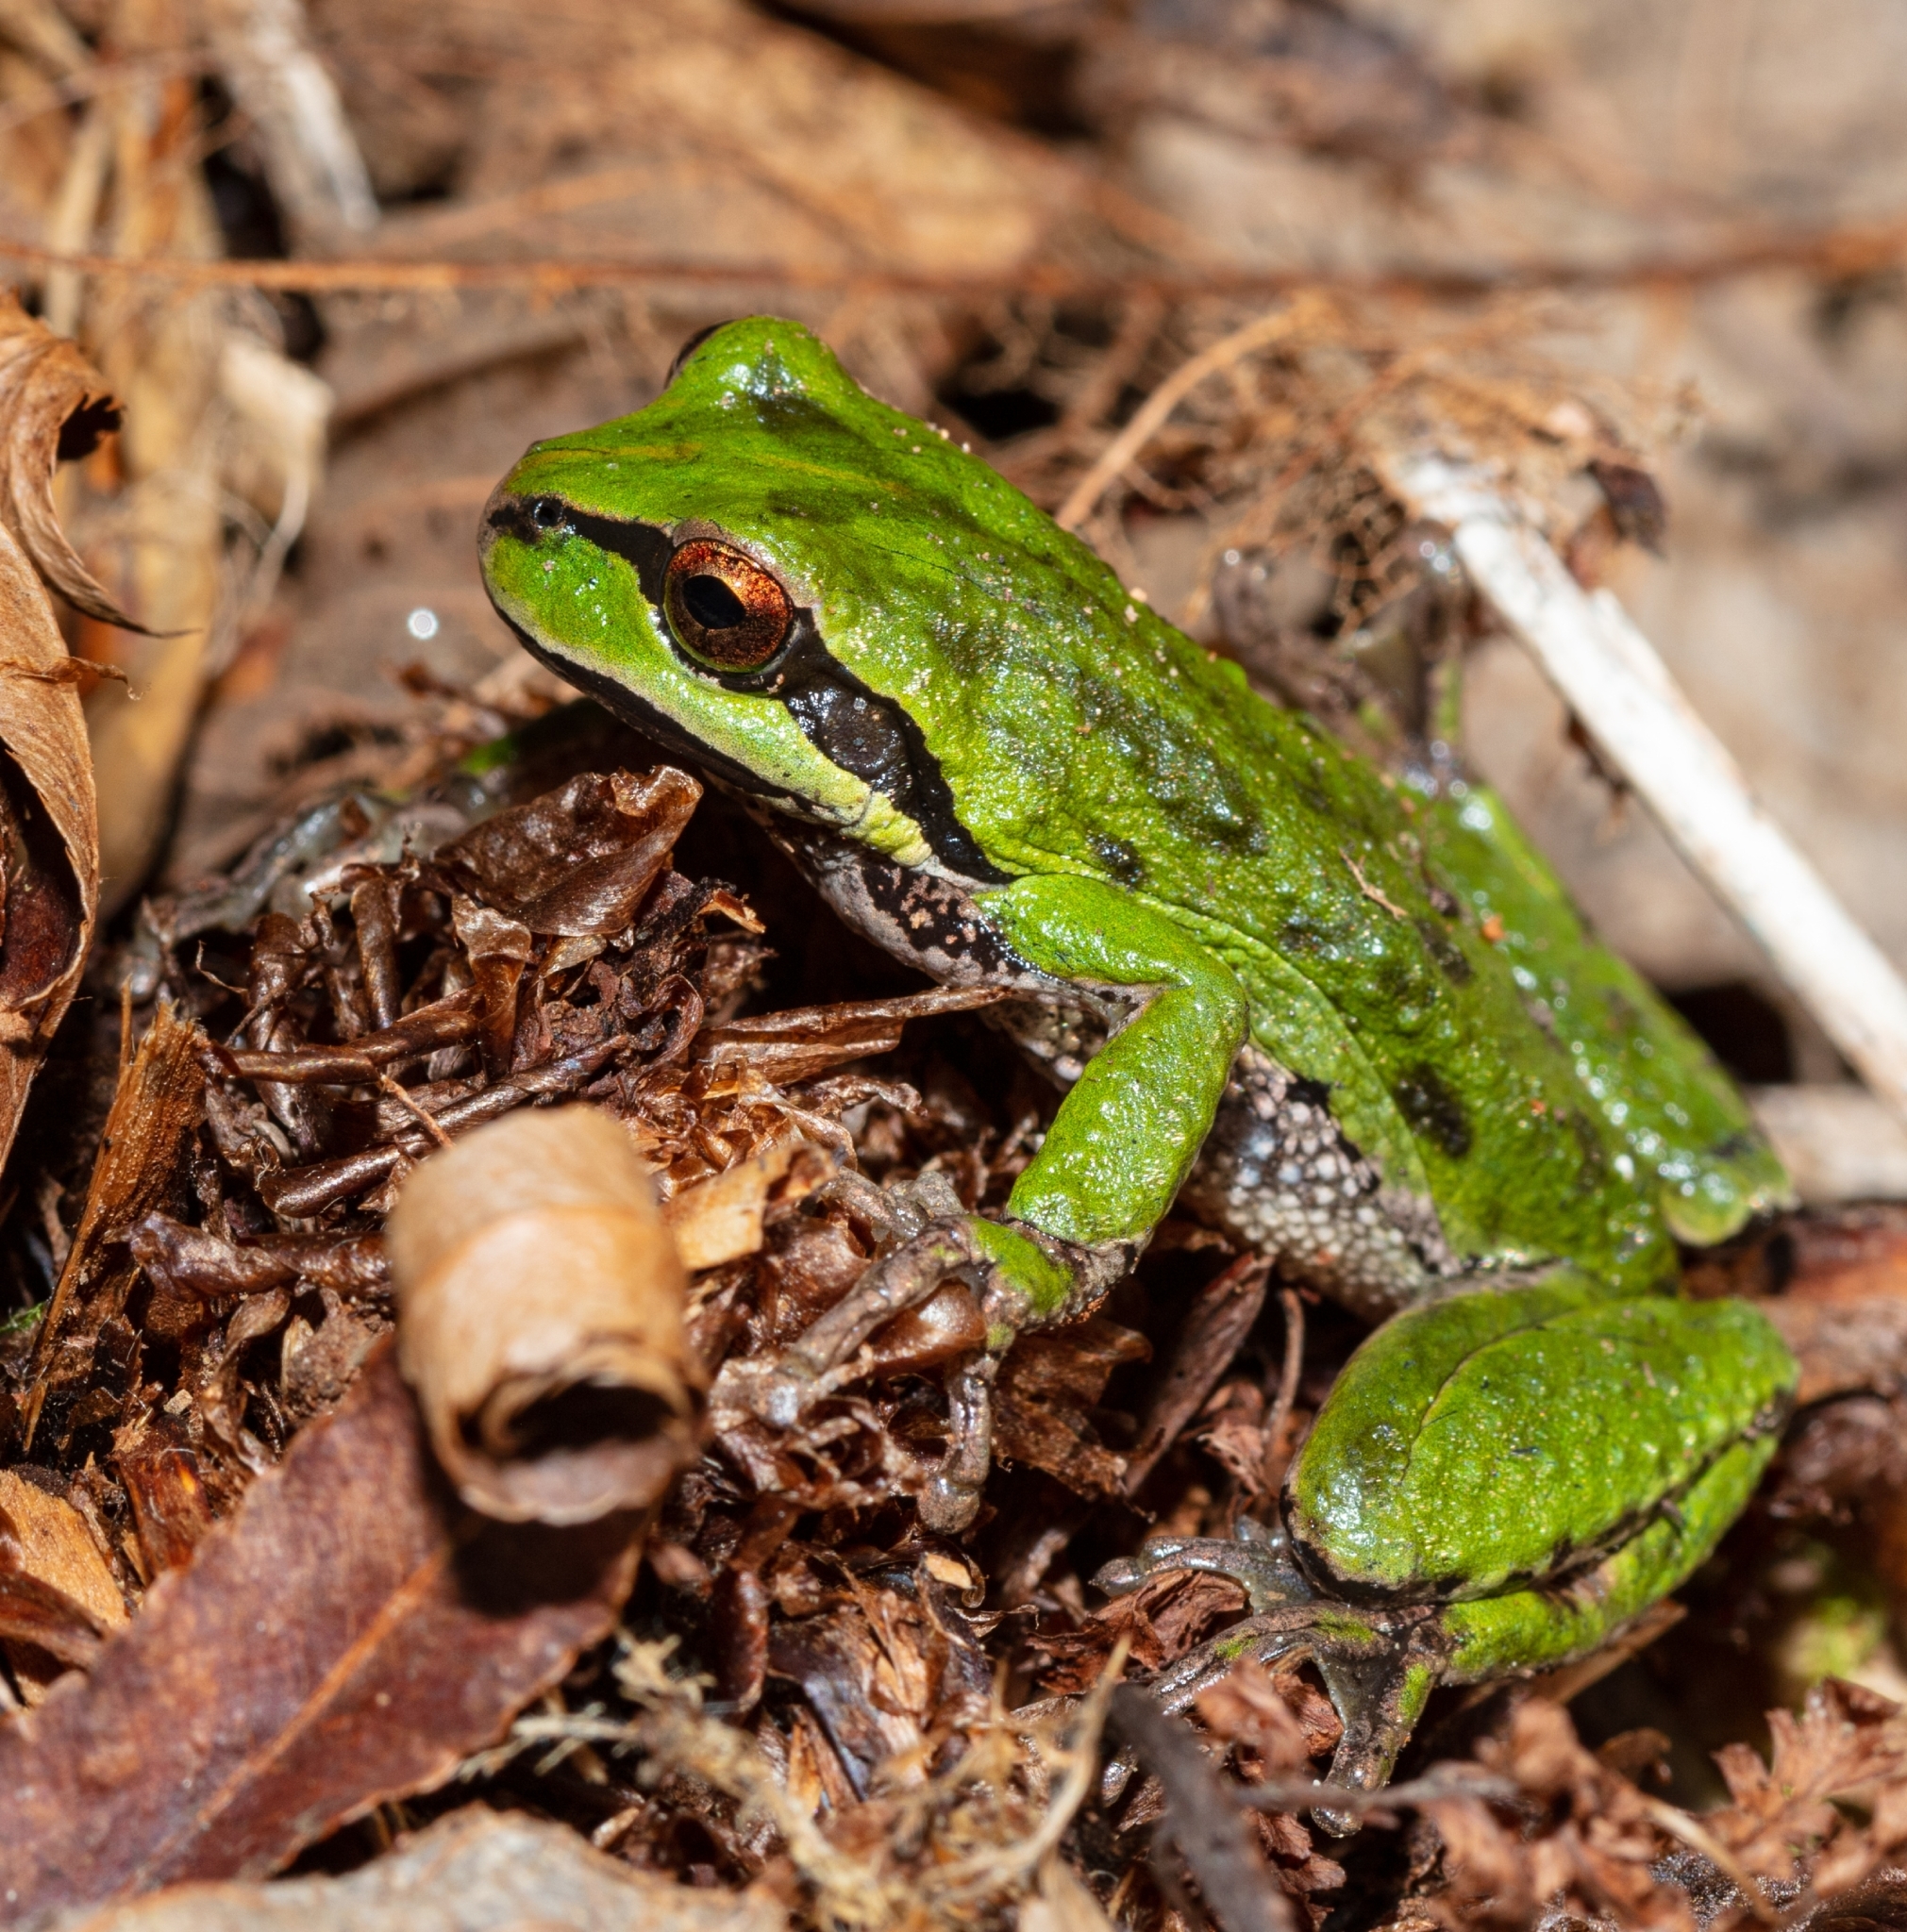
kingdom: Animalia
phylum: Chordata
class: Amphibia
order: Anura
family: Hylidae
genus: Pseudacris
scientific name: Pseudacris regilla
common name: Pacific chorus frog
